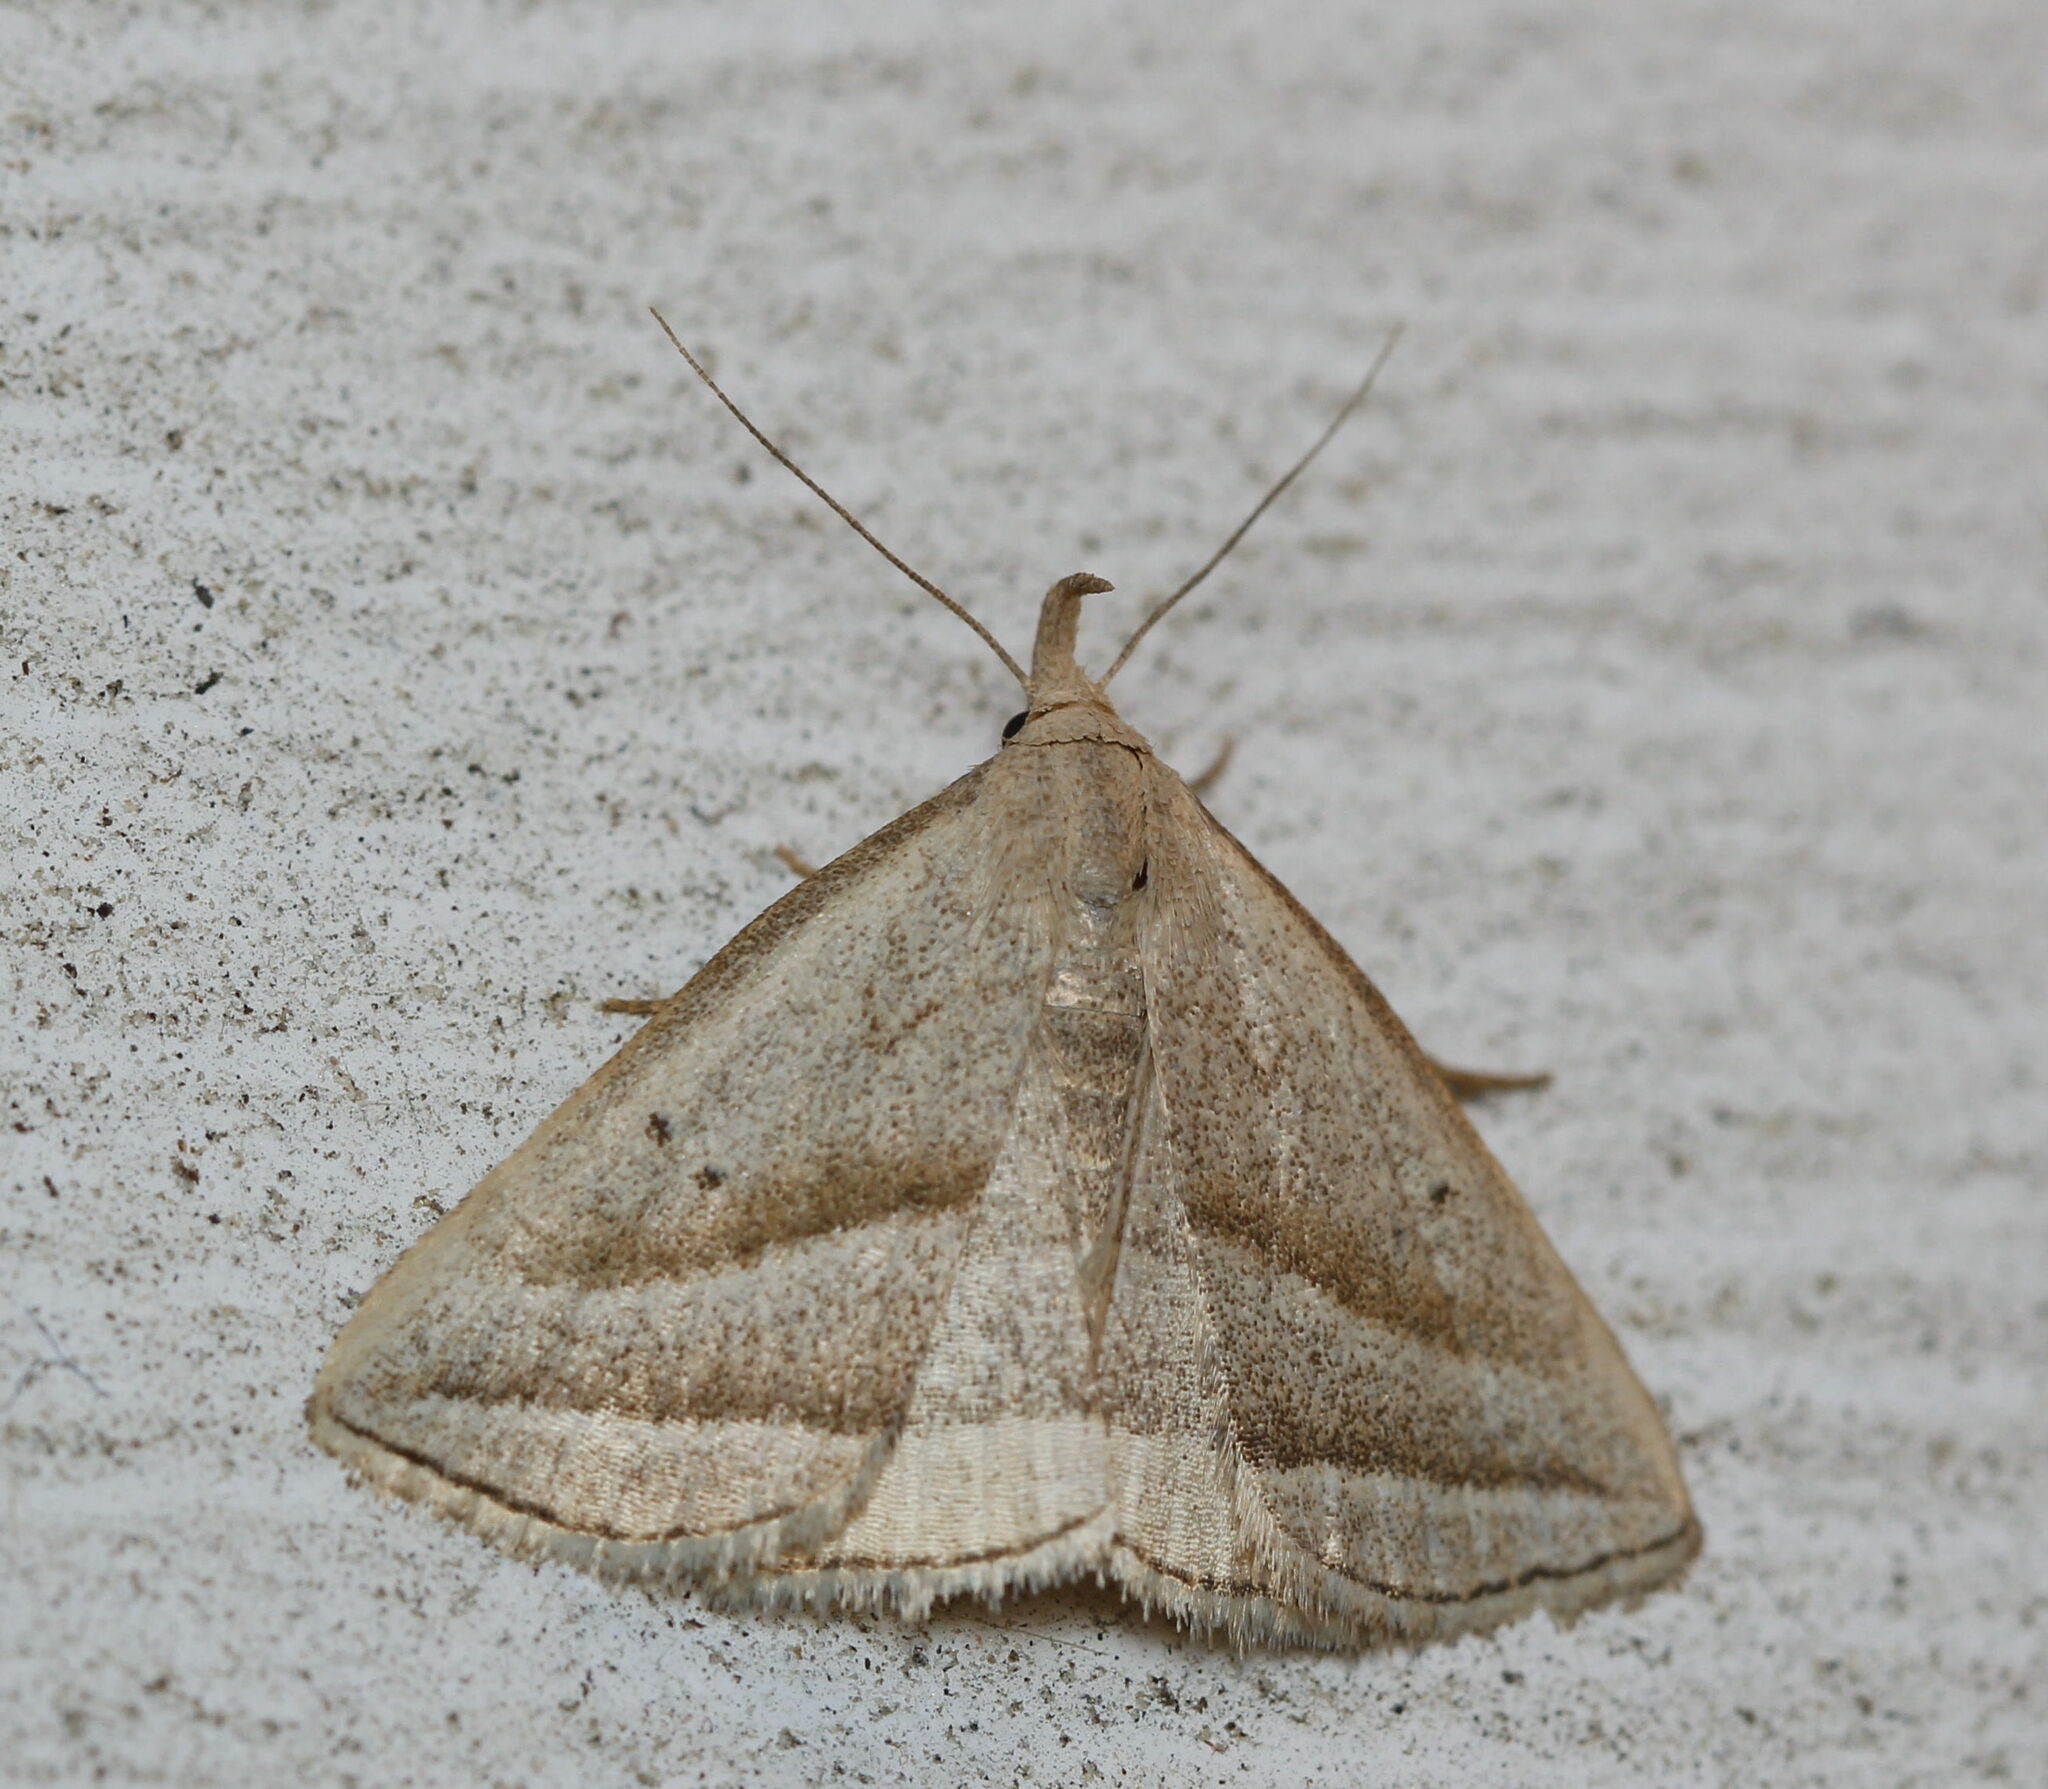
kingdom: Animalia
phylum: Arthropoda
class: Insecta
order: Lepidoptera
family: Erebidae
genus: Macrochilo
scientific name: Macrochilo absorptalis
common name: Slant-lined owlet
